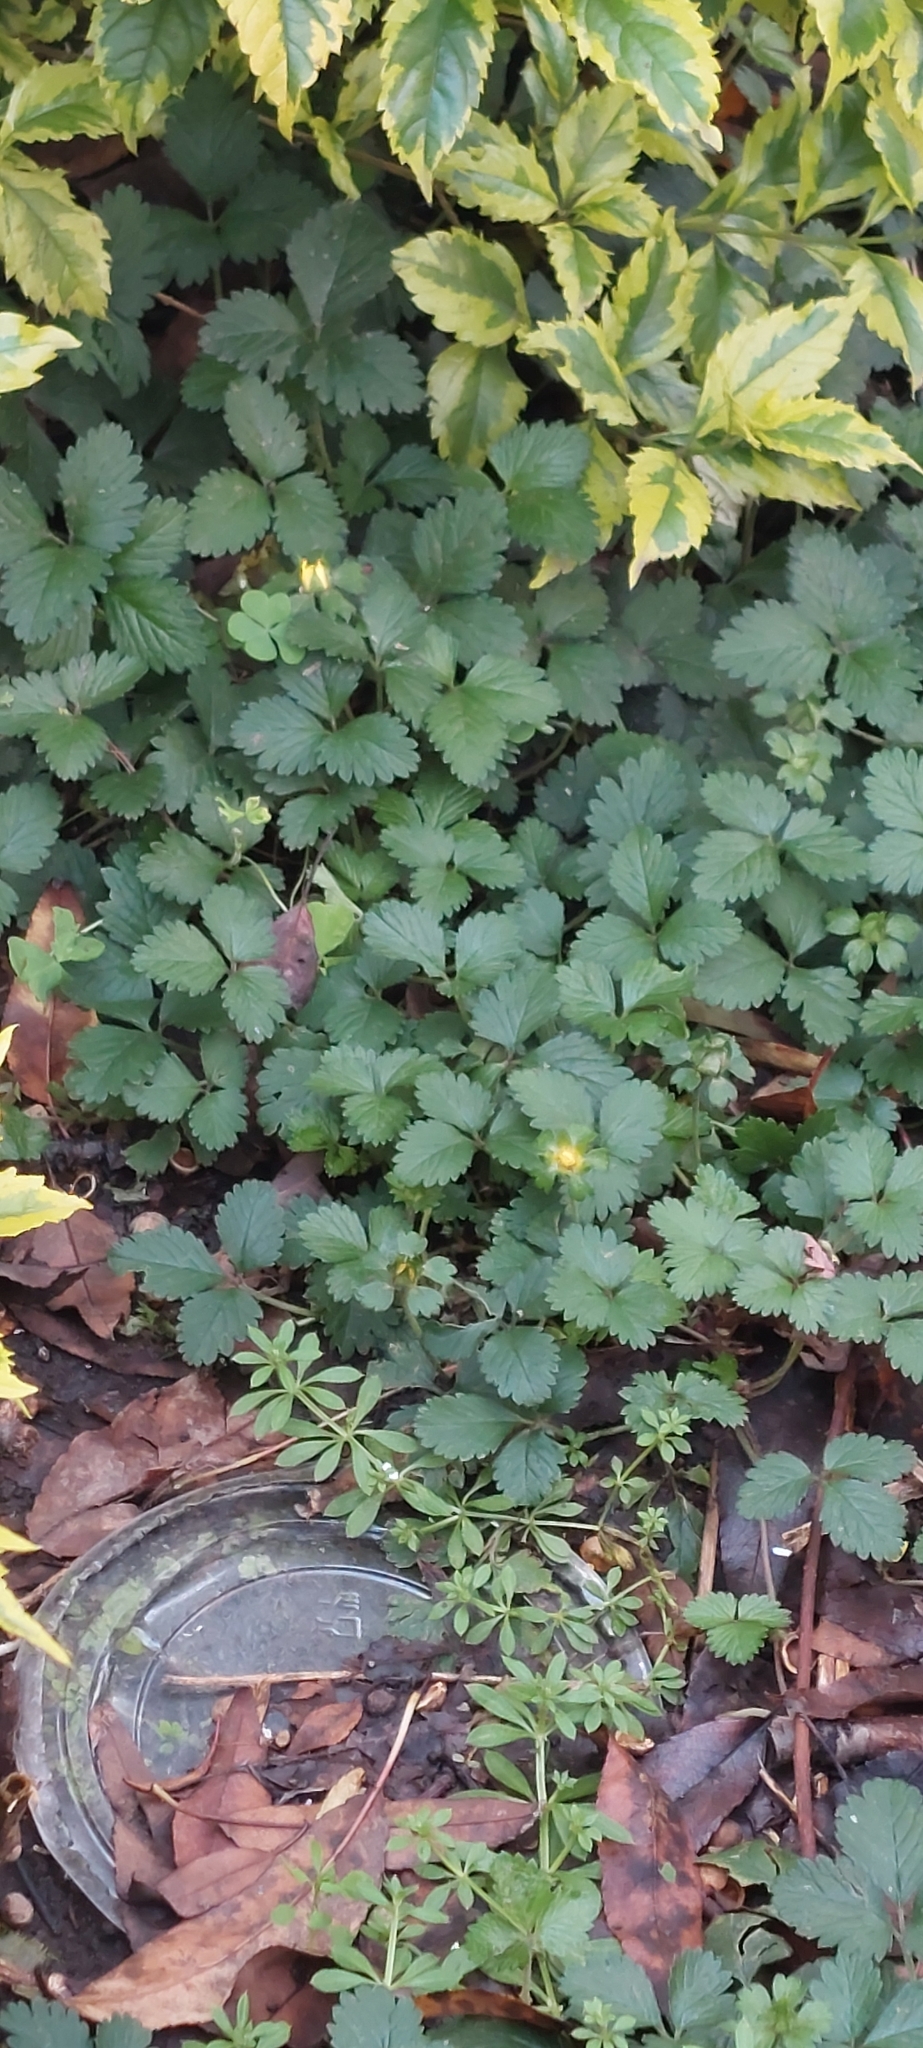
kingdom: Plantae
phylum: Tracheophyta
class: Magnoliopsida
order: Rosales
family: Rosaceae
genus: Potentilla
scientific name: Potentilla indica
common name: Yellow-flowered strawberry
